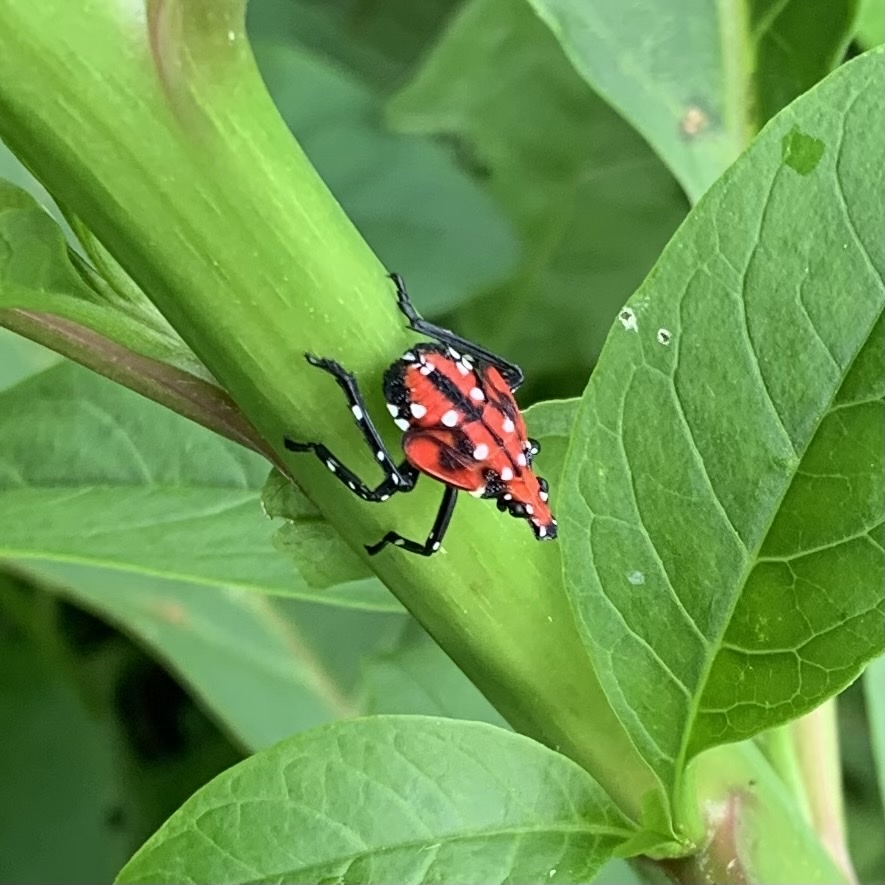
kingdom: Animalia
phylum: Arthropoda
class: Insecta
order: Hemiptera
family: Fulgoridae
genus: Lycorma
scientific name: Lycorma delicatula
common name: Spotted lanternfly
